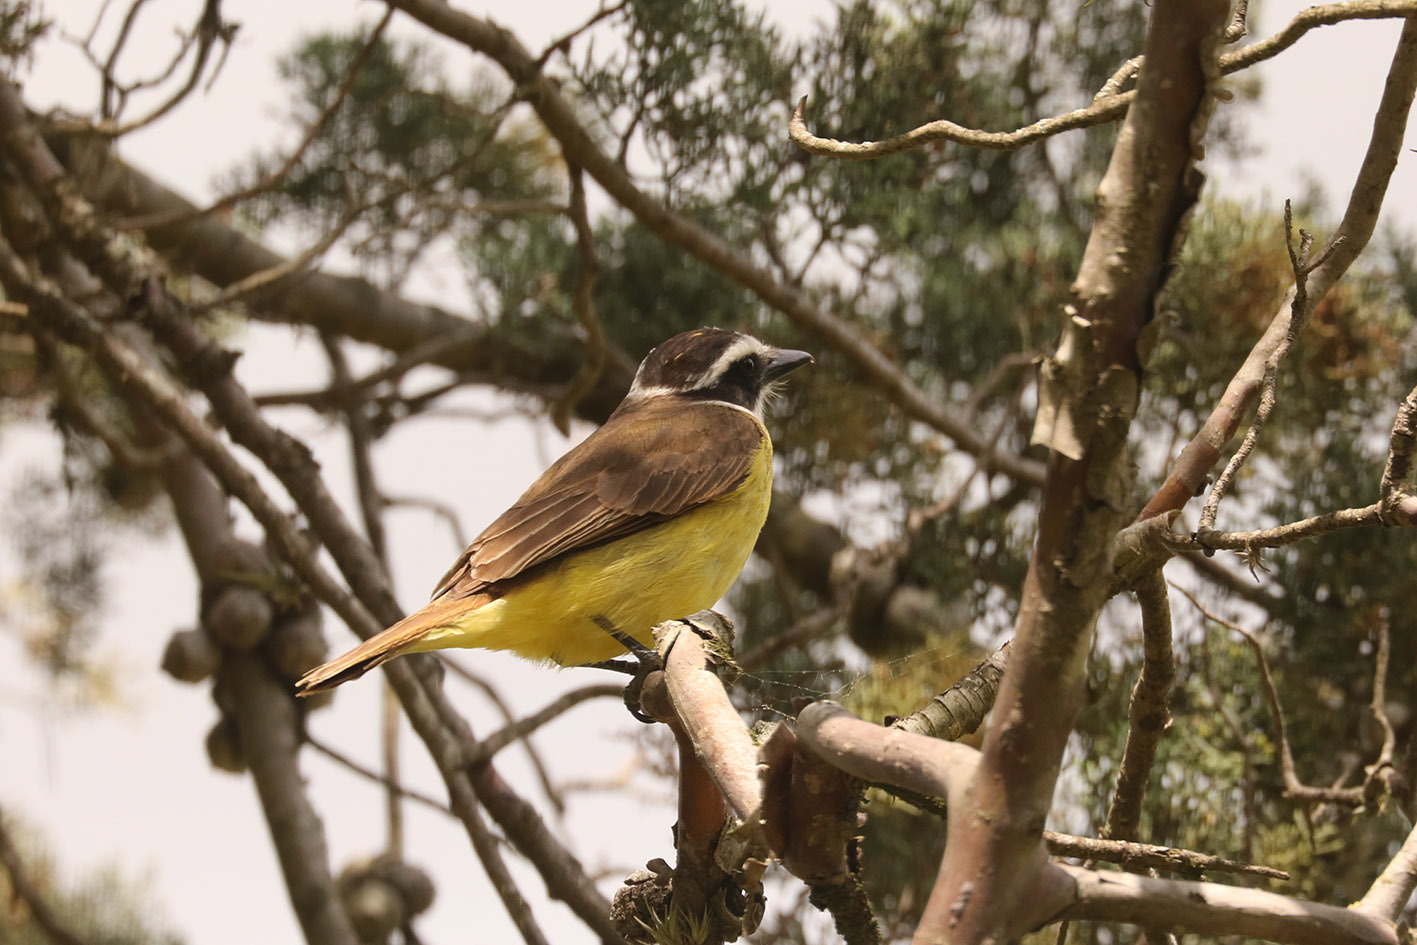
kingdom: Animalia
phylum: Chordata
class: Aves
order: Passeriformes
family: Tyrannidae
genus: Pitangus
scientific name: Pitangus sulphuratus
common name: Great kiskadee
